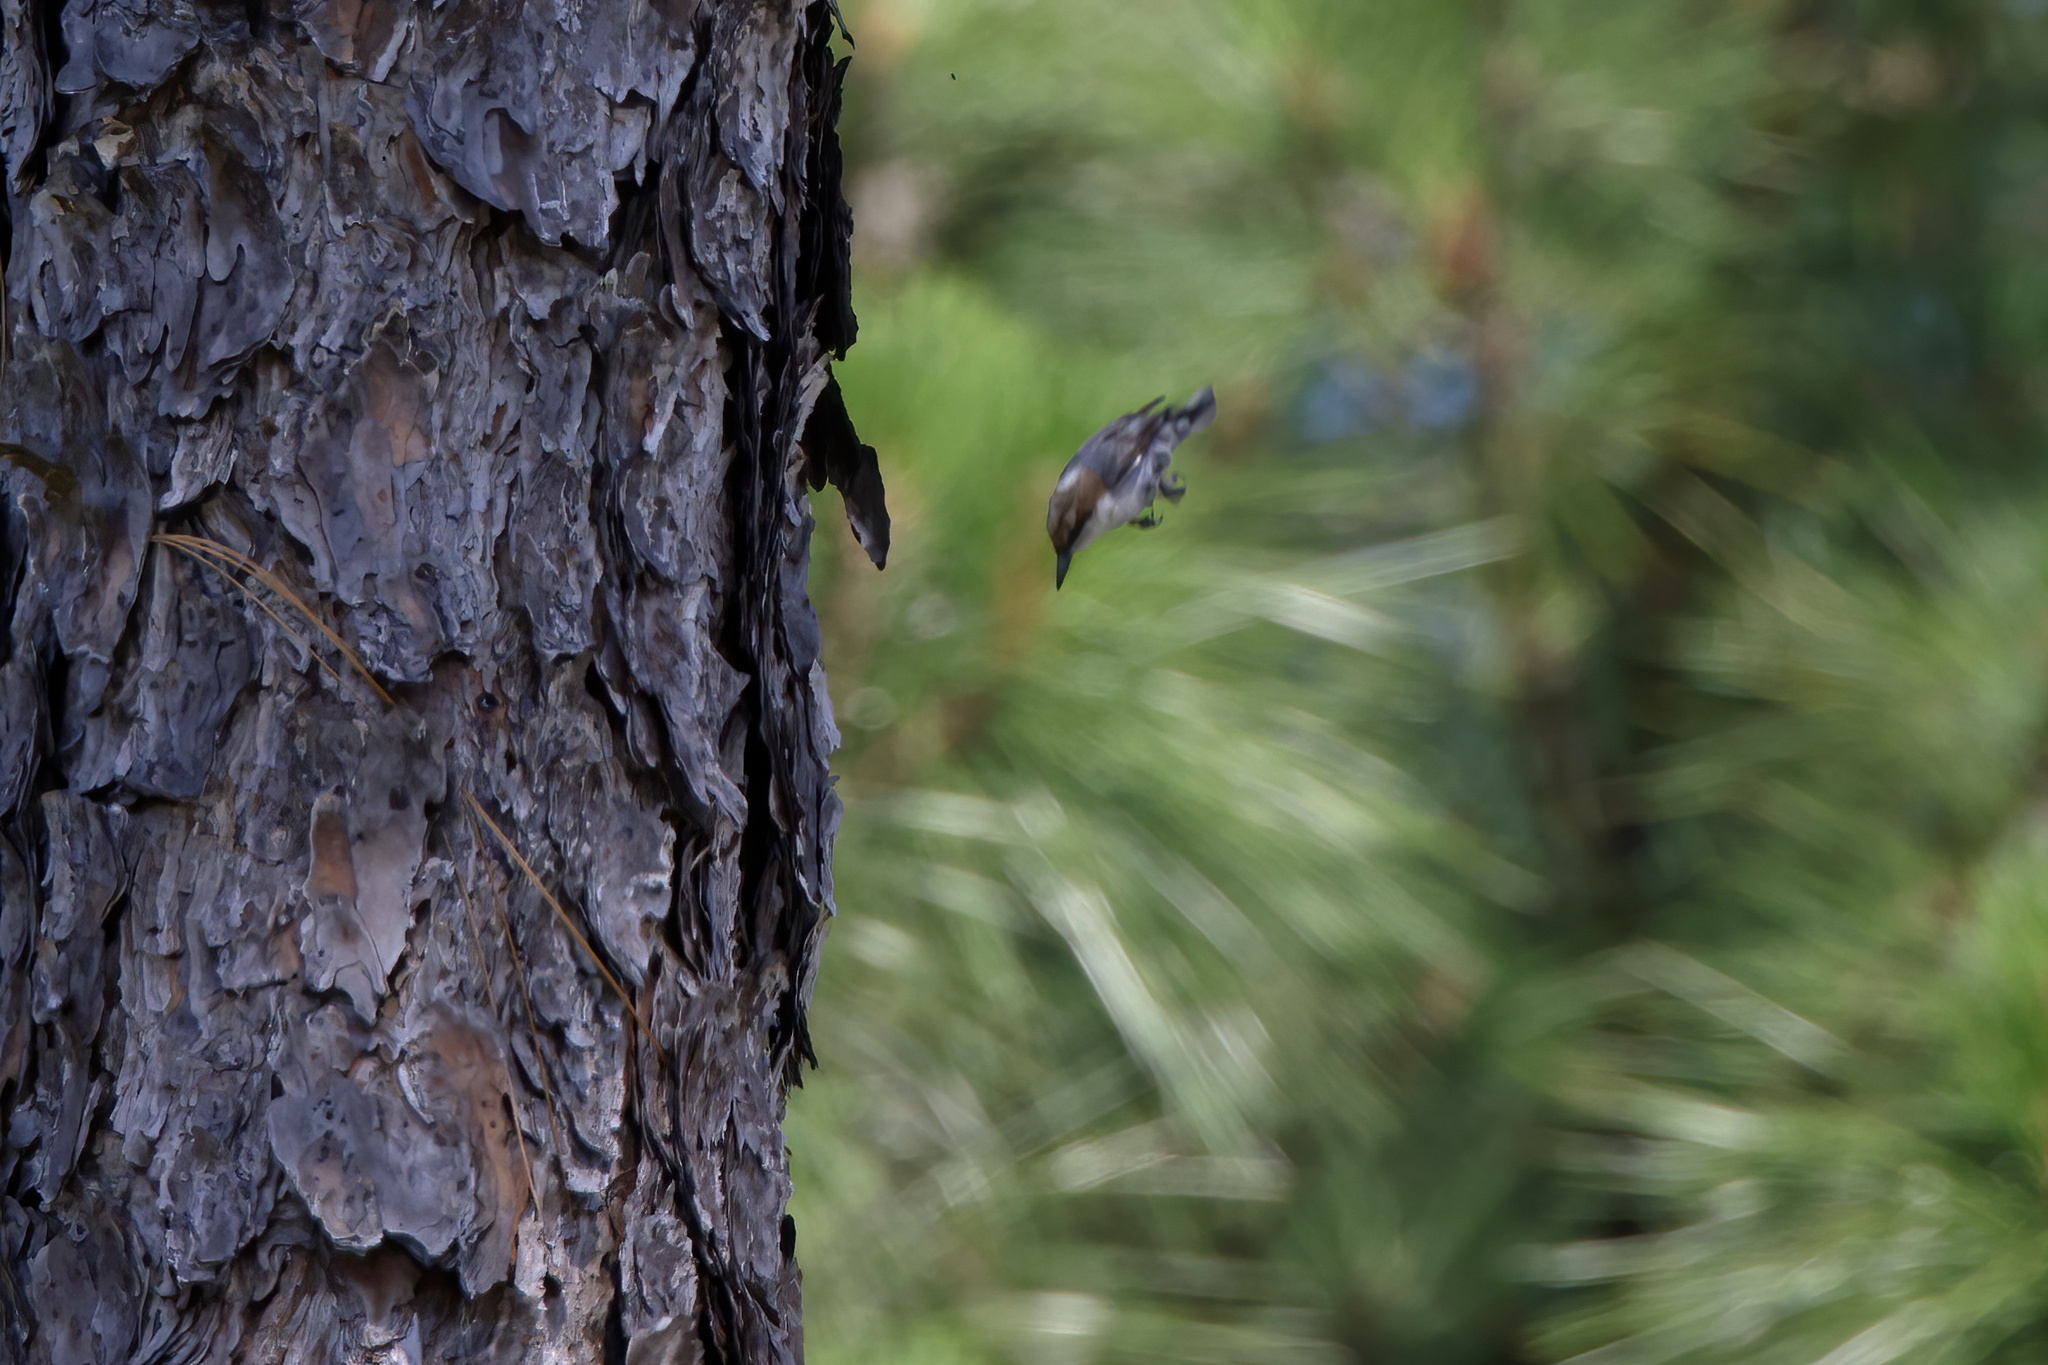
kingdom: Animalia
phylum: Chordata
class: Aves
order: Passeriformes
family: Sittidae
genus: Sitta
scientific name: Sitta pusilla
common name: Brown-headed nuthatch
